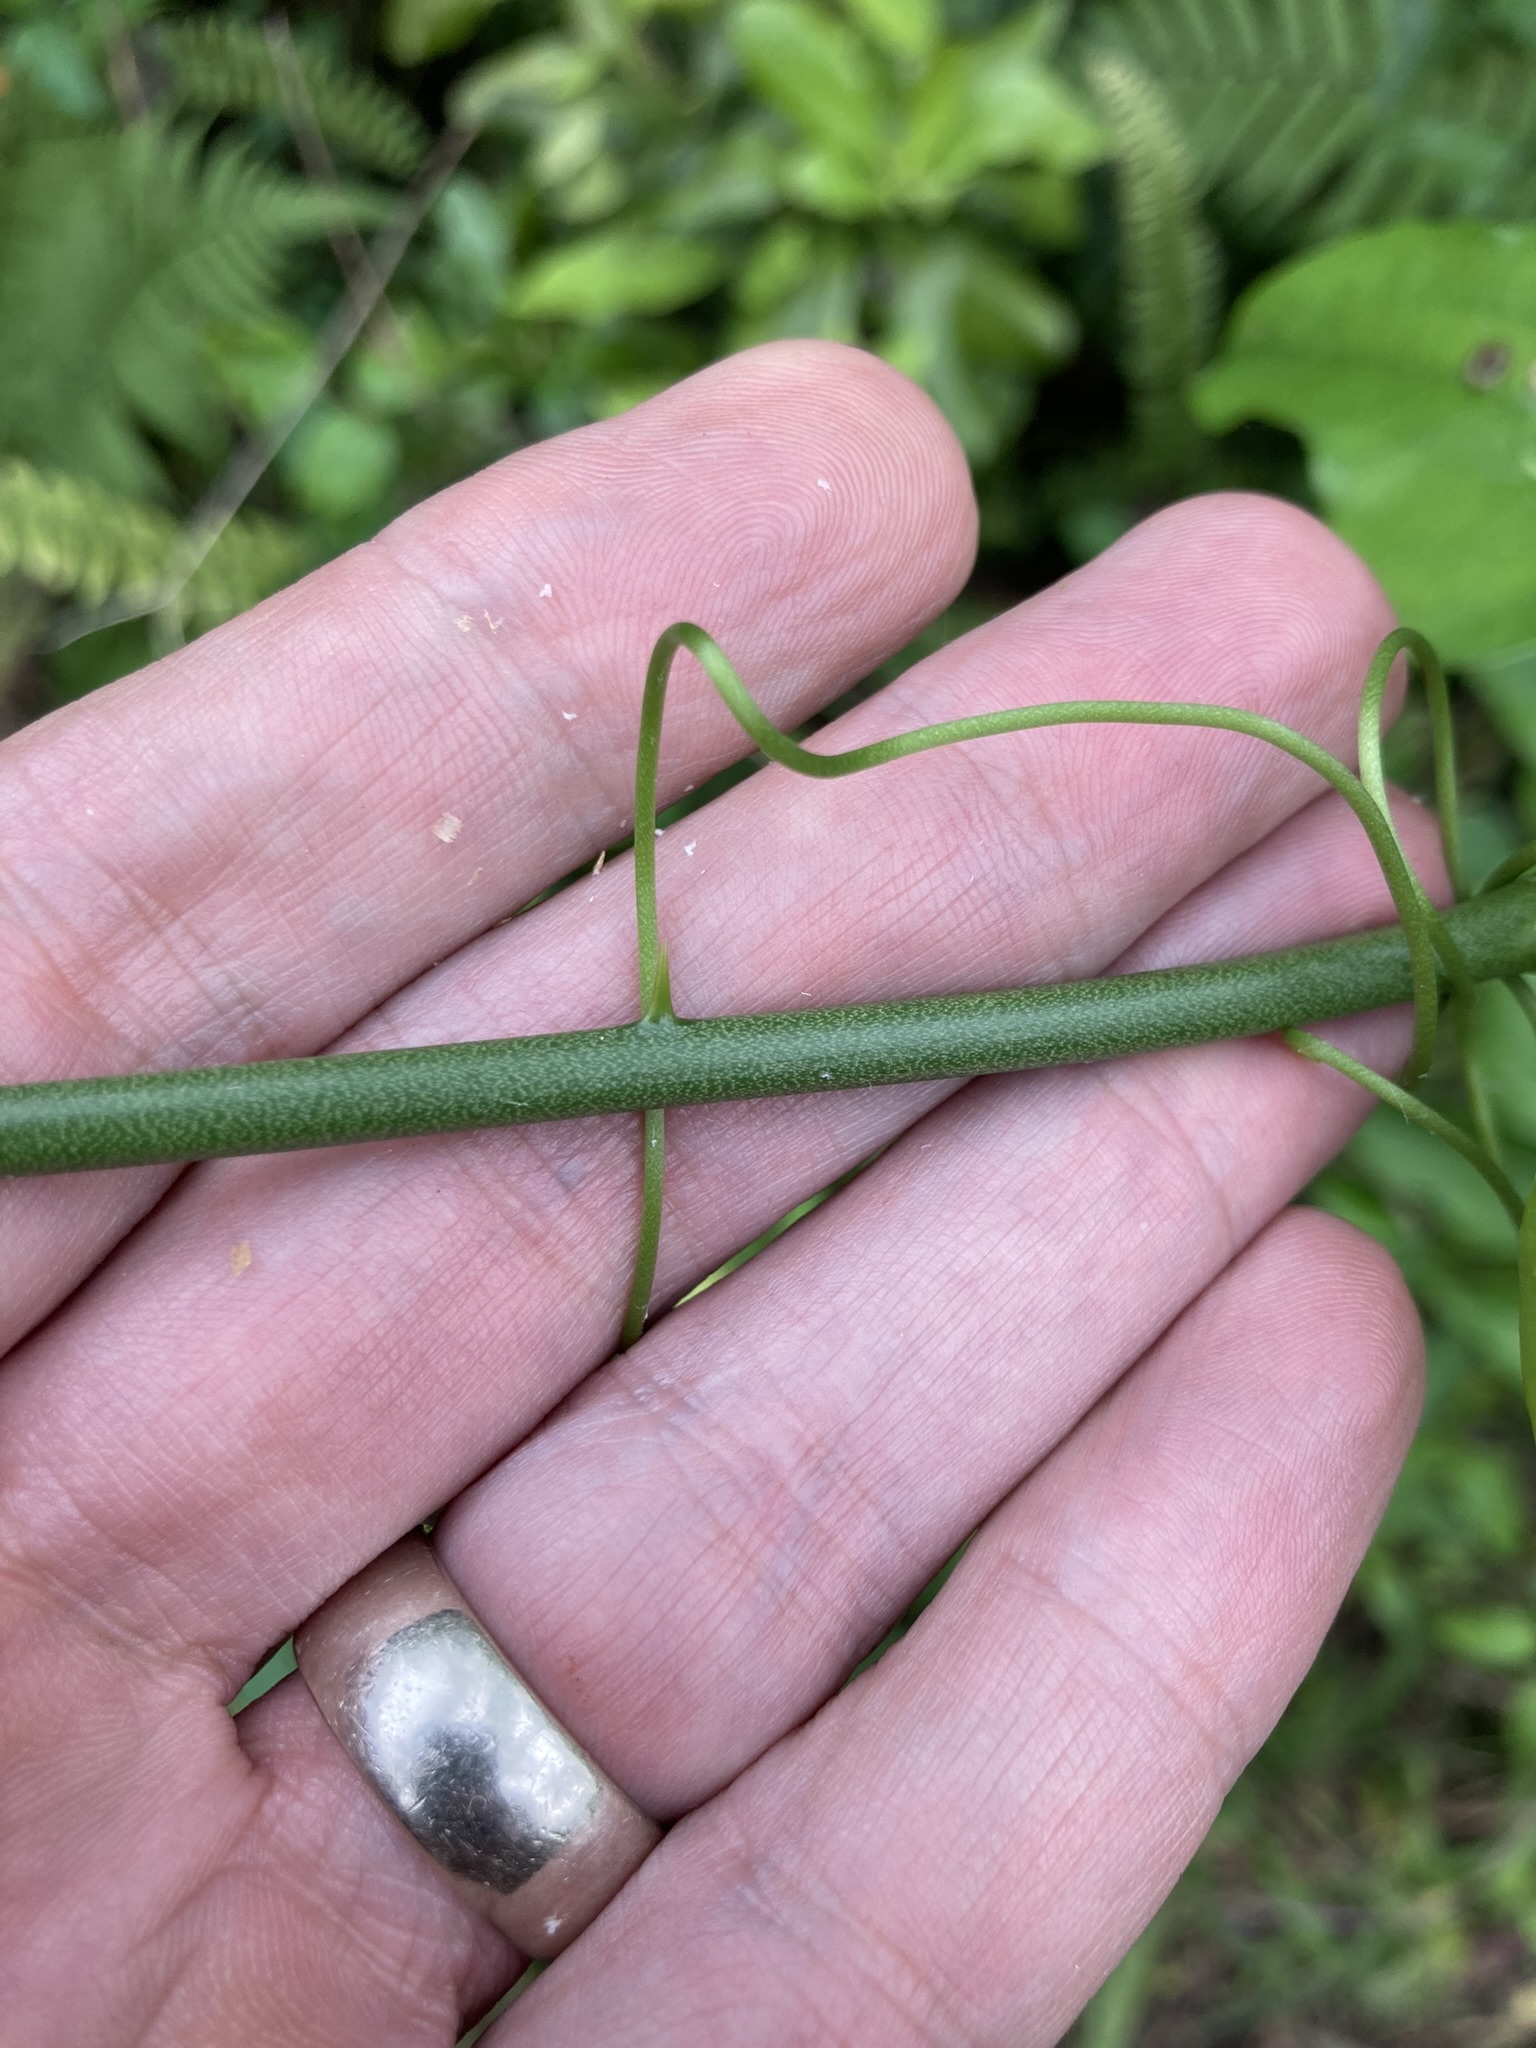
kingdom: Plantae
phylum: Tracheophyta
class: Liliopsida
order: Liliales
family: Smilacaceae
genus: Smilax
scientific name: Smilax tamnoides
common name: Hellfetter
